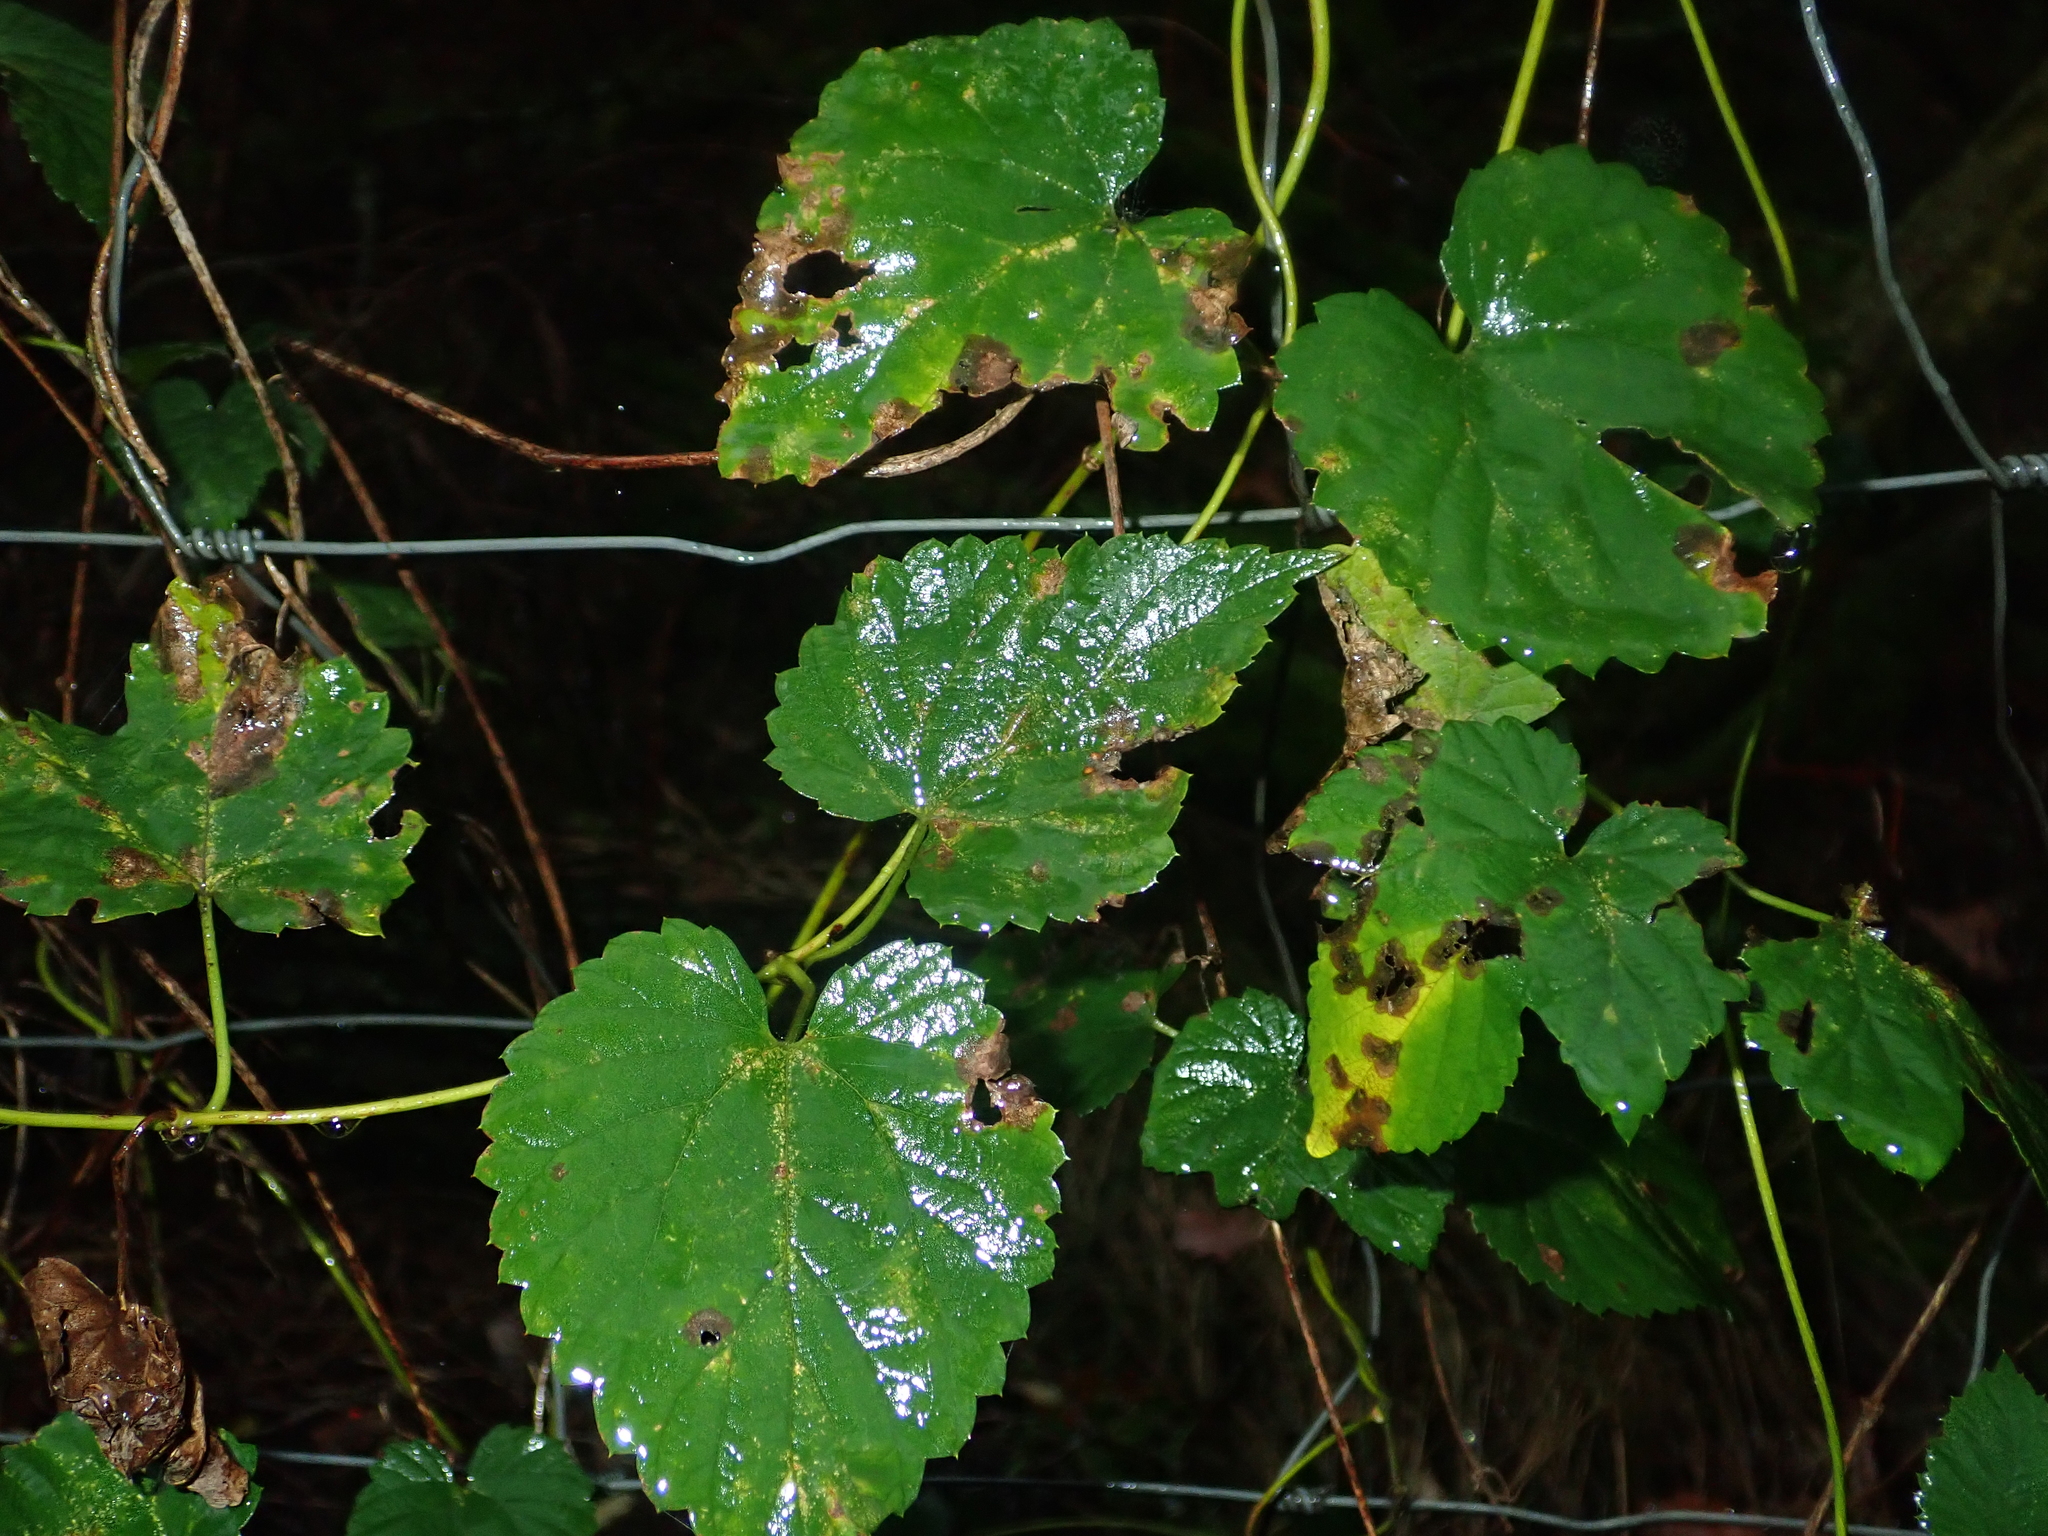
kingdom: Plantae
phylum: Tracheophyta
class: Magnoliopsida
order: Rosales
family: Cannabaceae
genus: Humulus
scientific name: Humulus lupulus
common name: Hop
